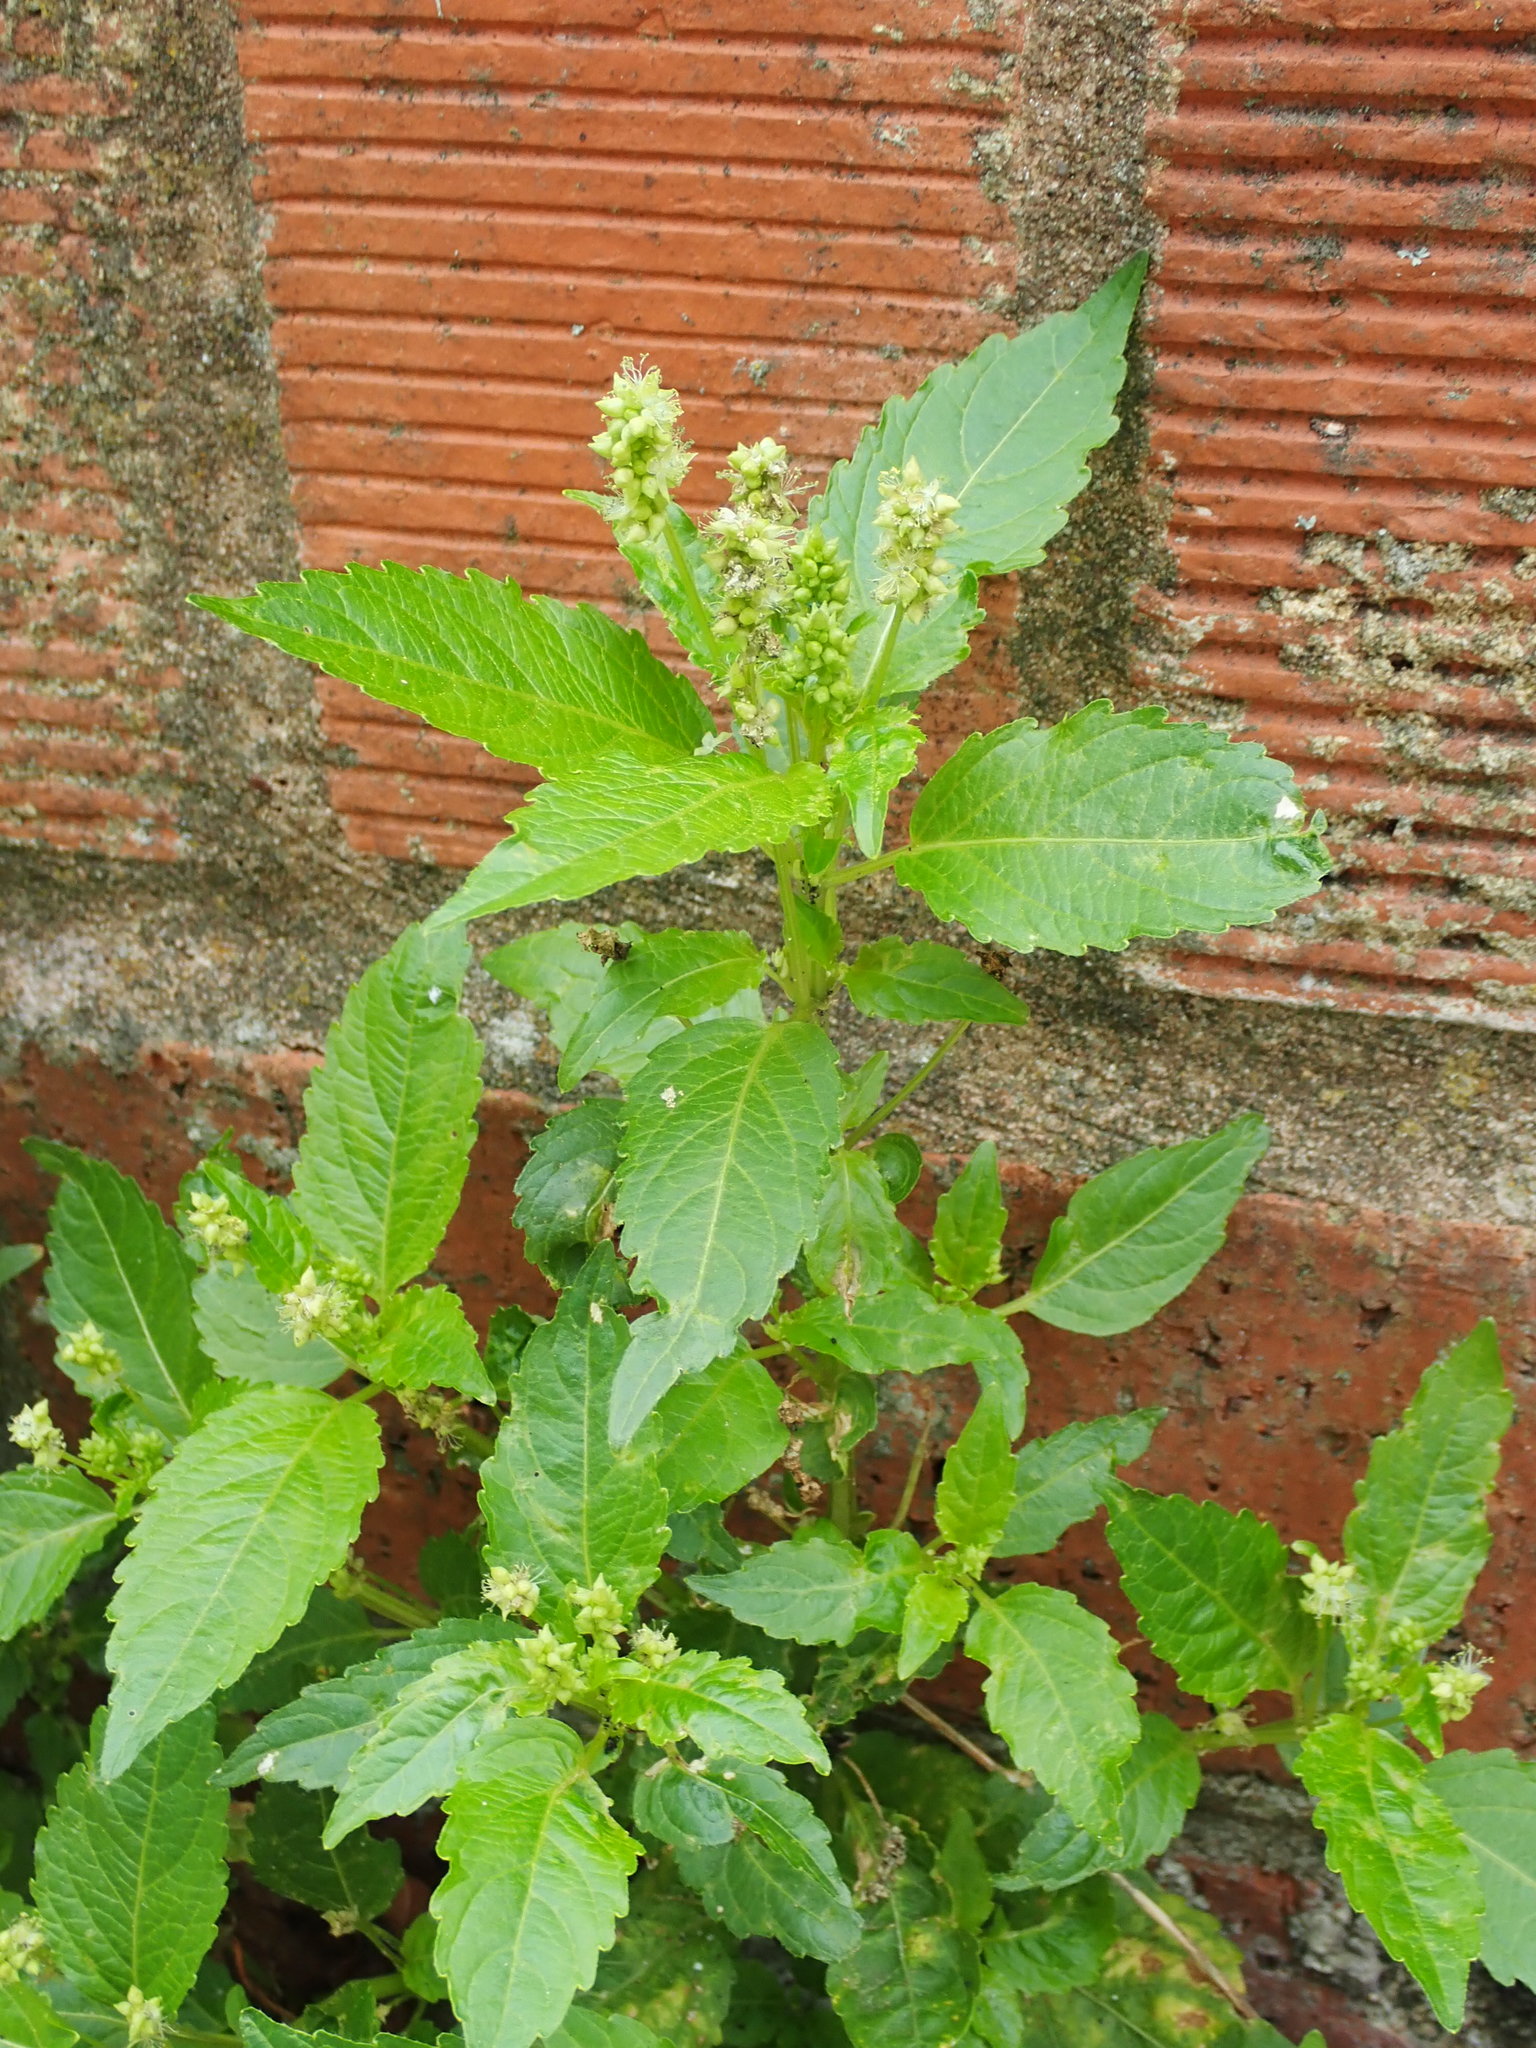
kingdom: Plantae
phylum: Tracheophyta
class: Magnoliopsida
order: Malpighiales
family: Euphorbiaceae
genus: Mercurialis
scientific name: Mercurialis annua
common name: Annual mercury
